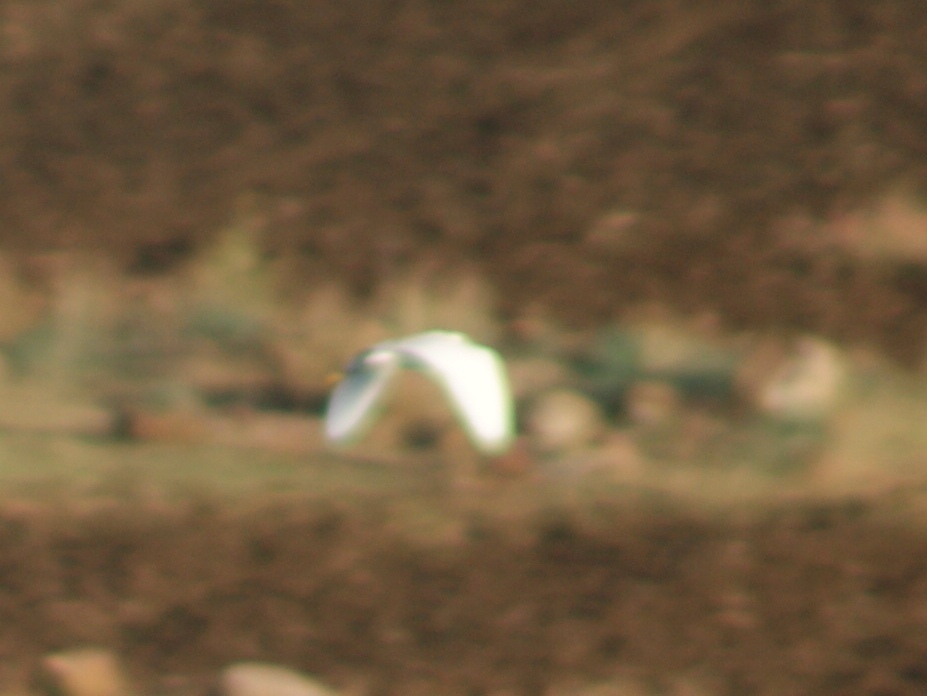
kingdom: Animalia
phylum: Chordata
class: Aves
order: Pelecaniformes
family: Ardeidae
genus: Egretta
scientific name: Egretta garzetta
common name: Little egret
